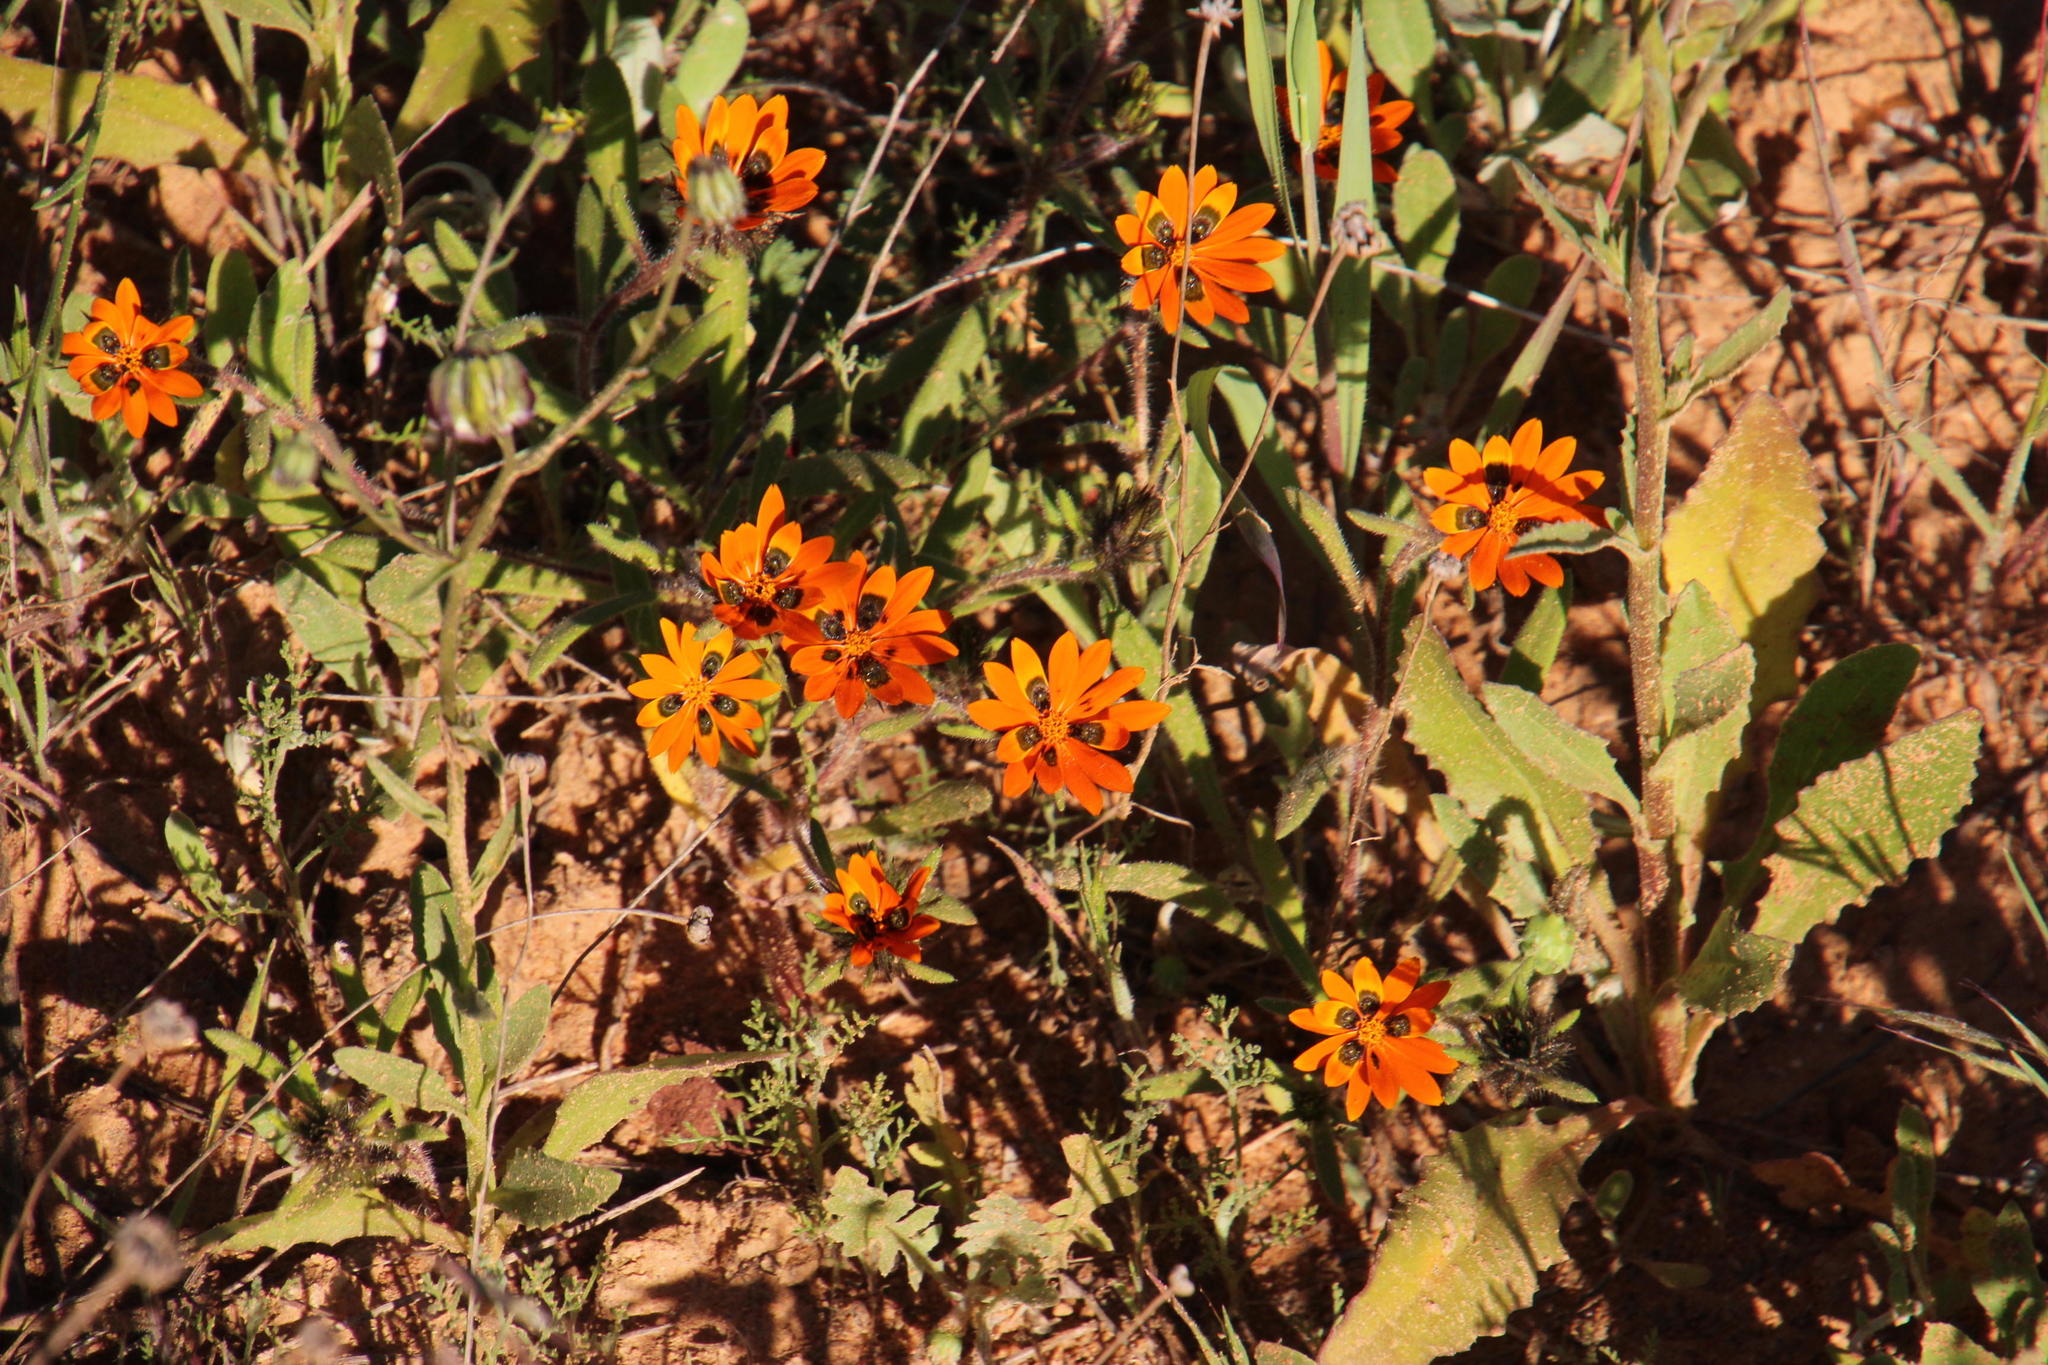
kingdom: Plantae
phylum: Tracheophyta
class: Magnoliopsida
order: Asterales
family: Asteraceae
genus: Gorteria
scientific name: Gorteria diffusa
